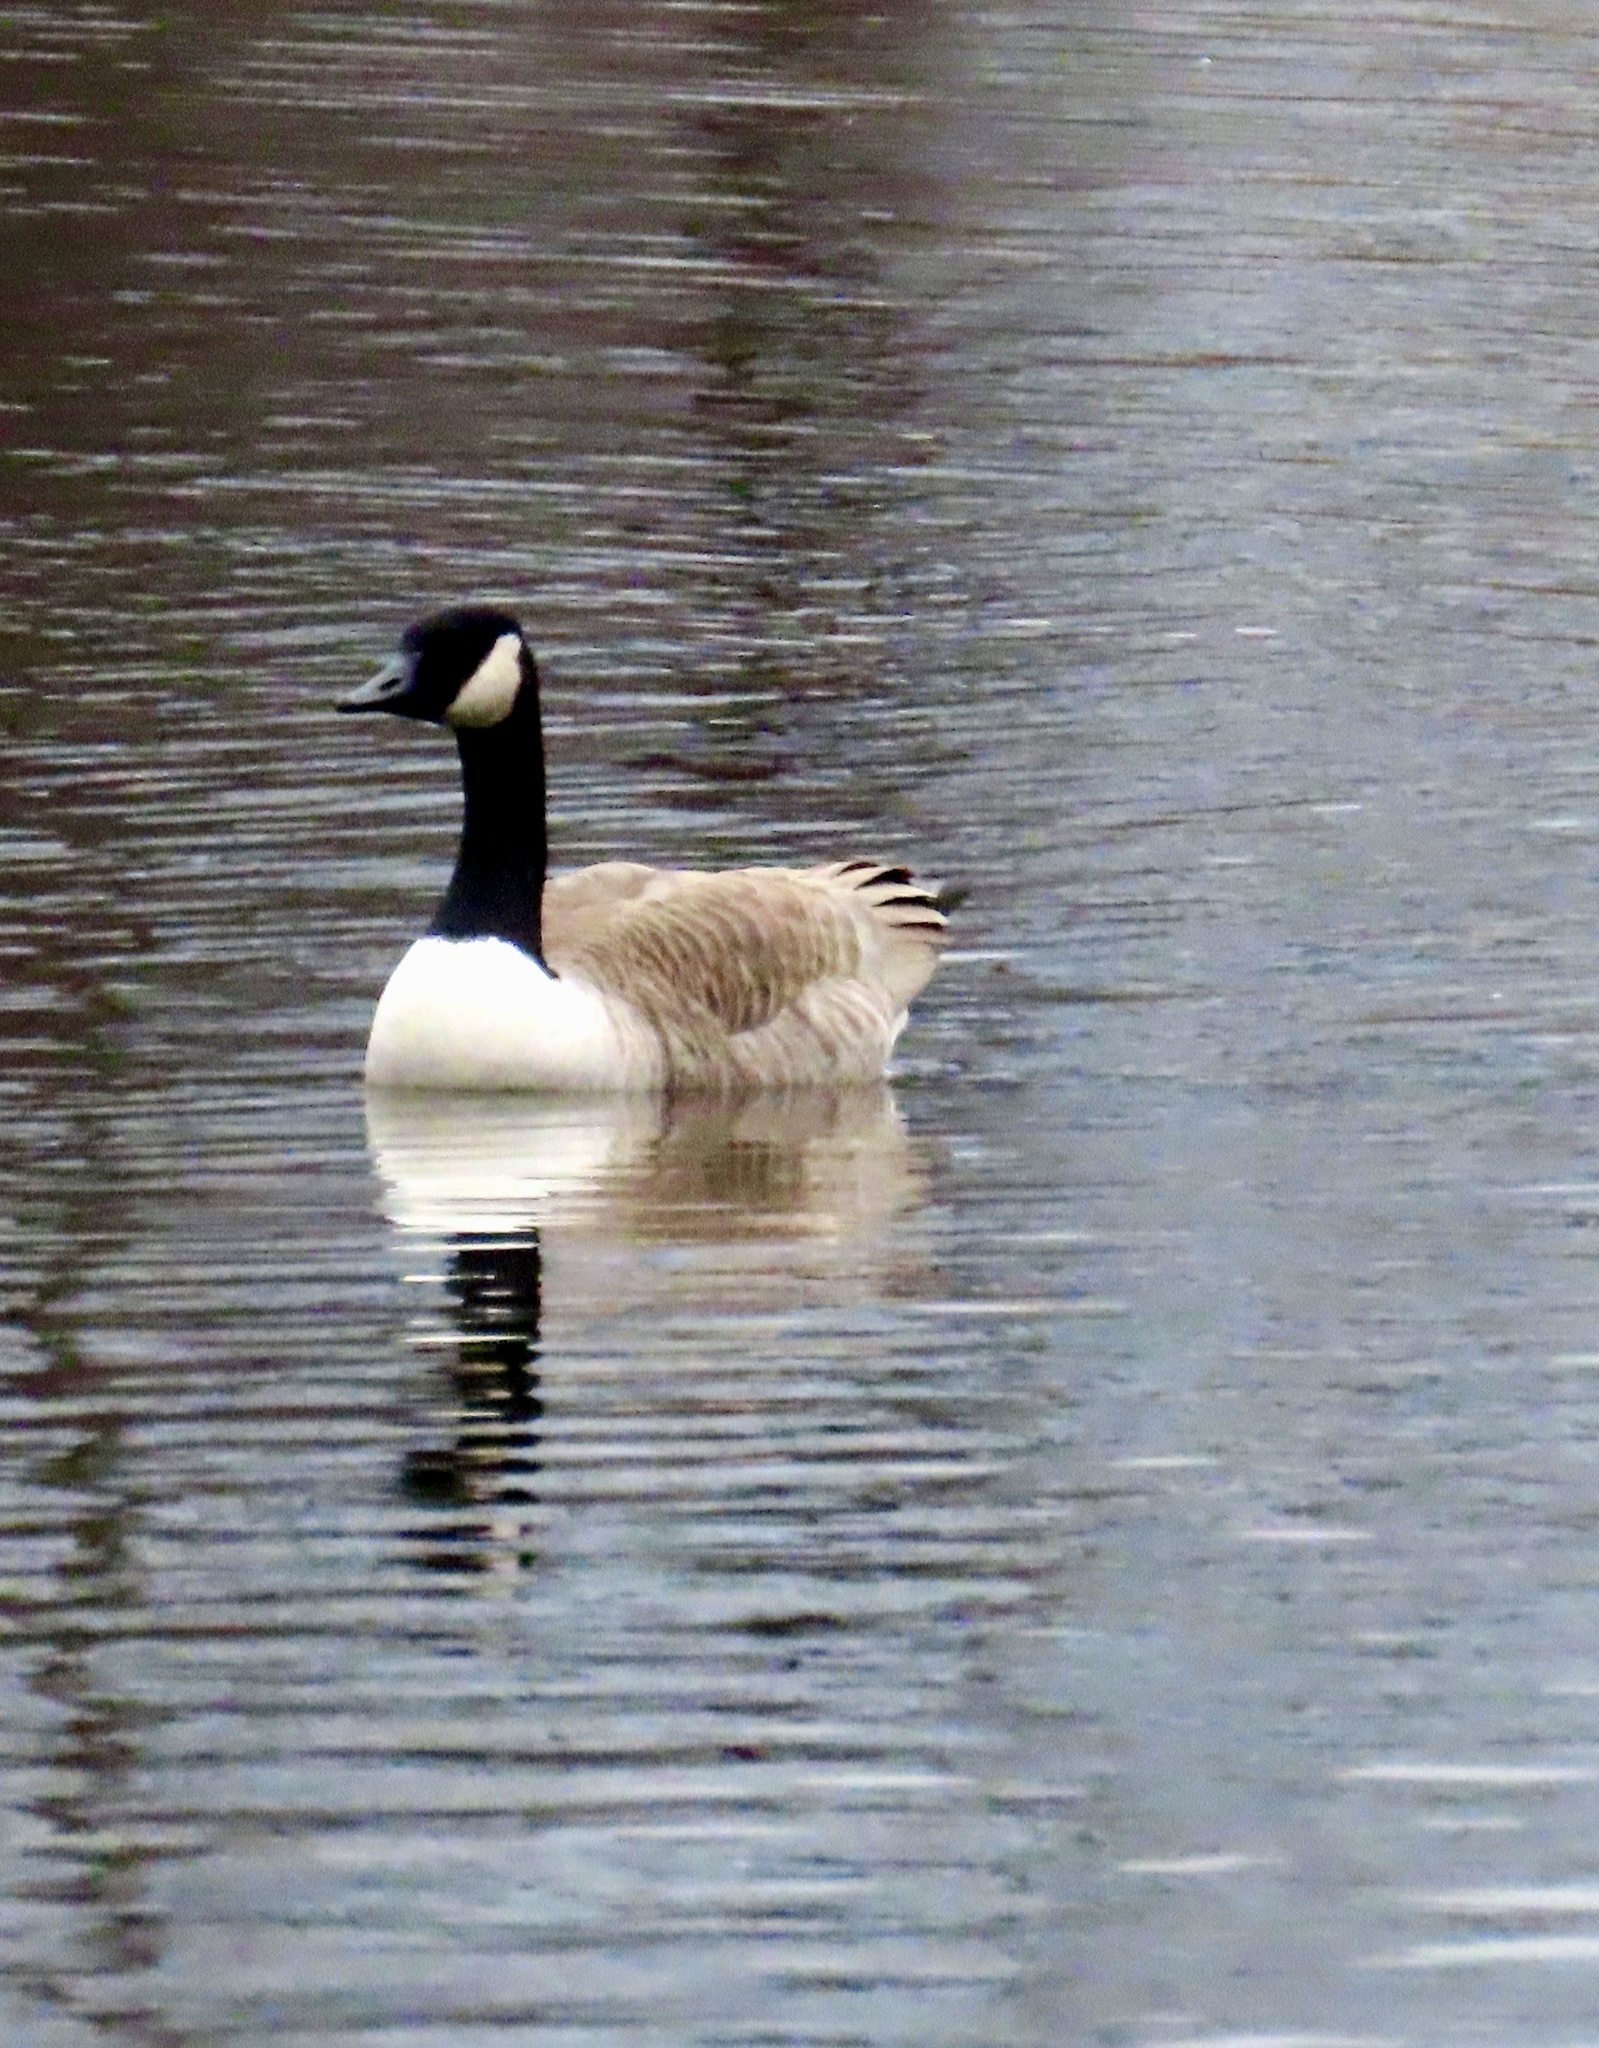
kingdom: Animalia
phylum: Chordata
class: Aves
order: Anseriformes
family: Anatidae
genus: Branta
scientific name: Branta canadensis
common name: Canada goose
